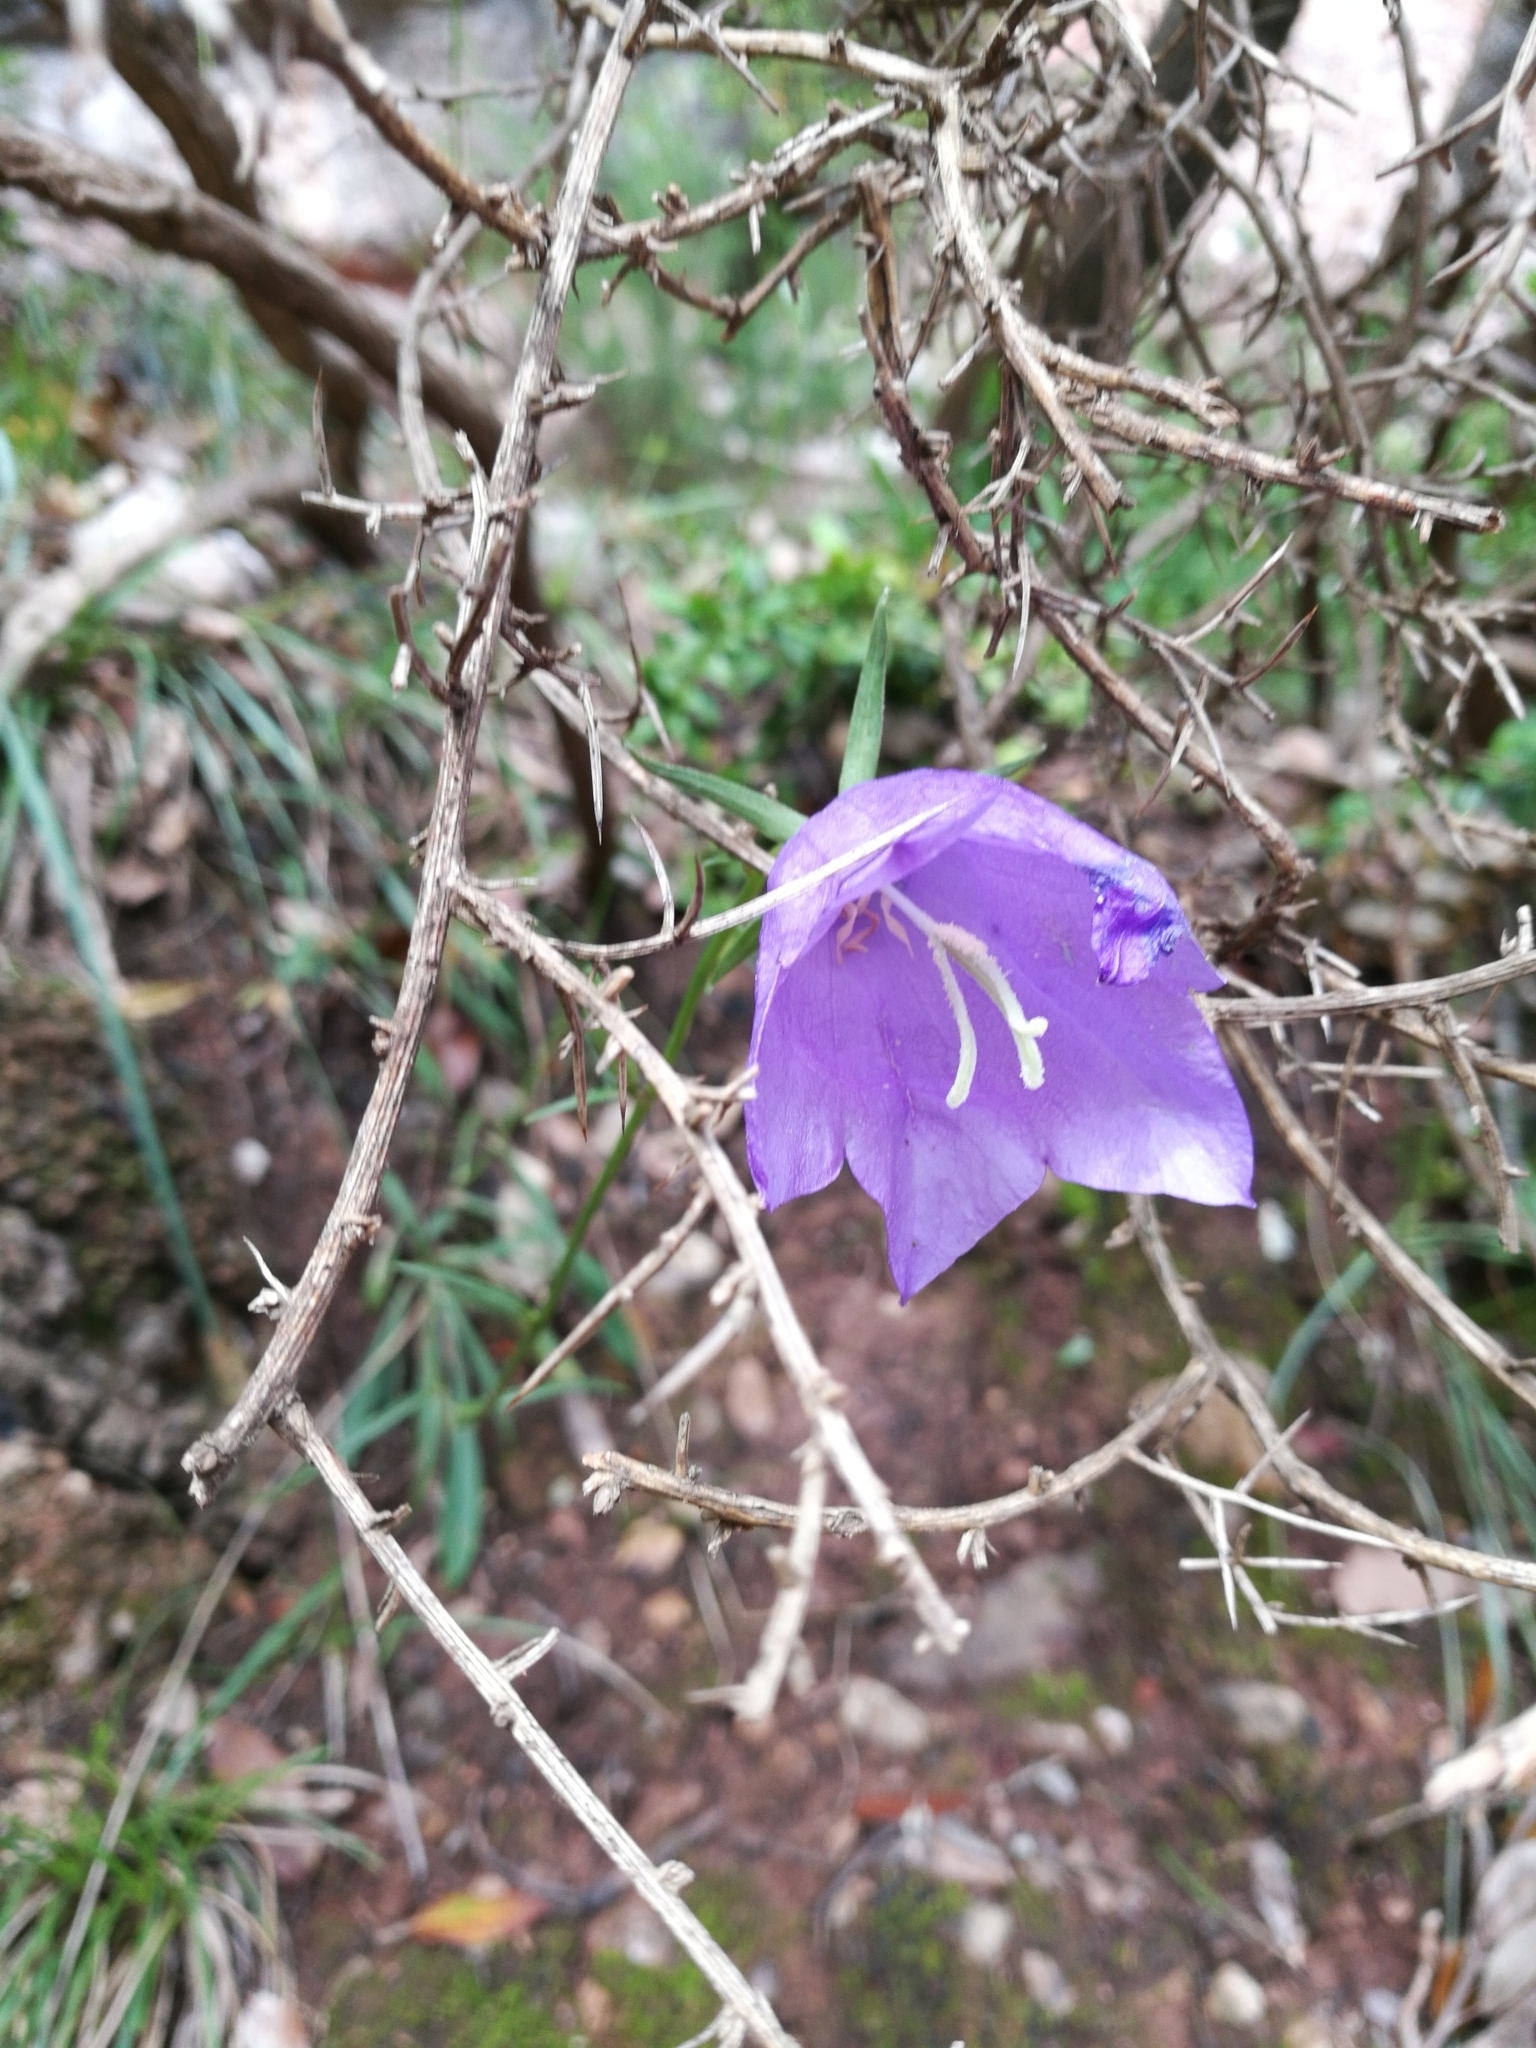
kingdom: Plantae
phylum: Tracheophyta
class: Magnoliopsida
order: Asterales
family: Campanulaceae
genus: Campanula
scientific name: Campanula persicifolia
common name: Peach-leaved bellflower
